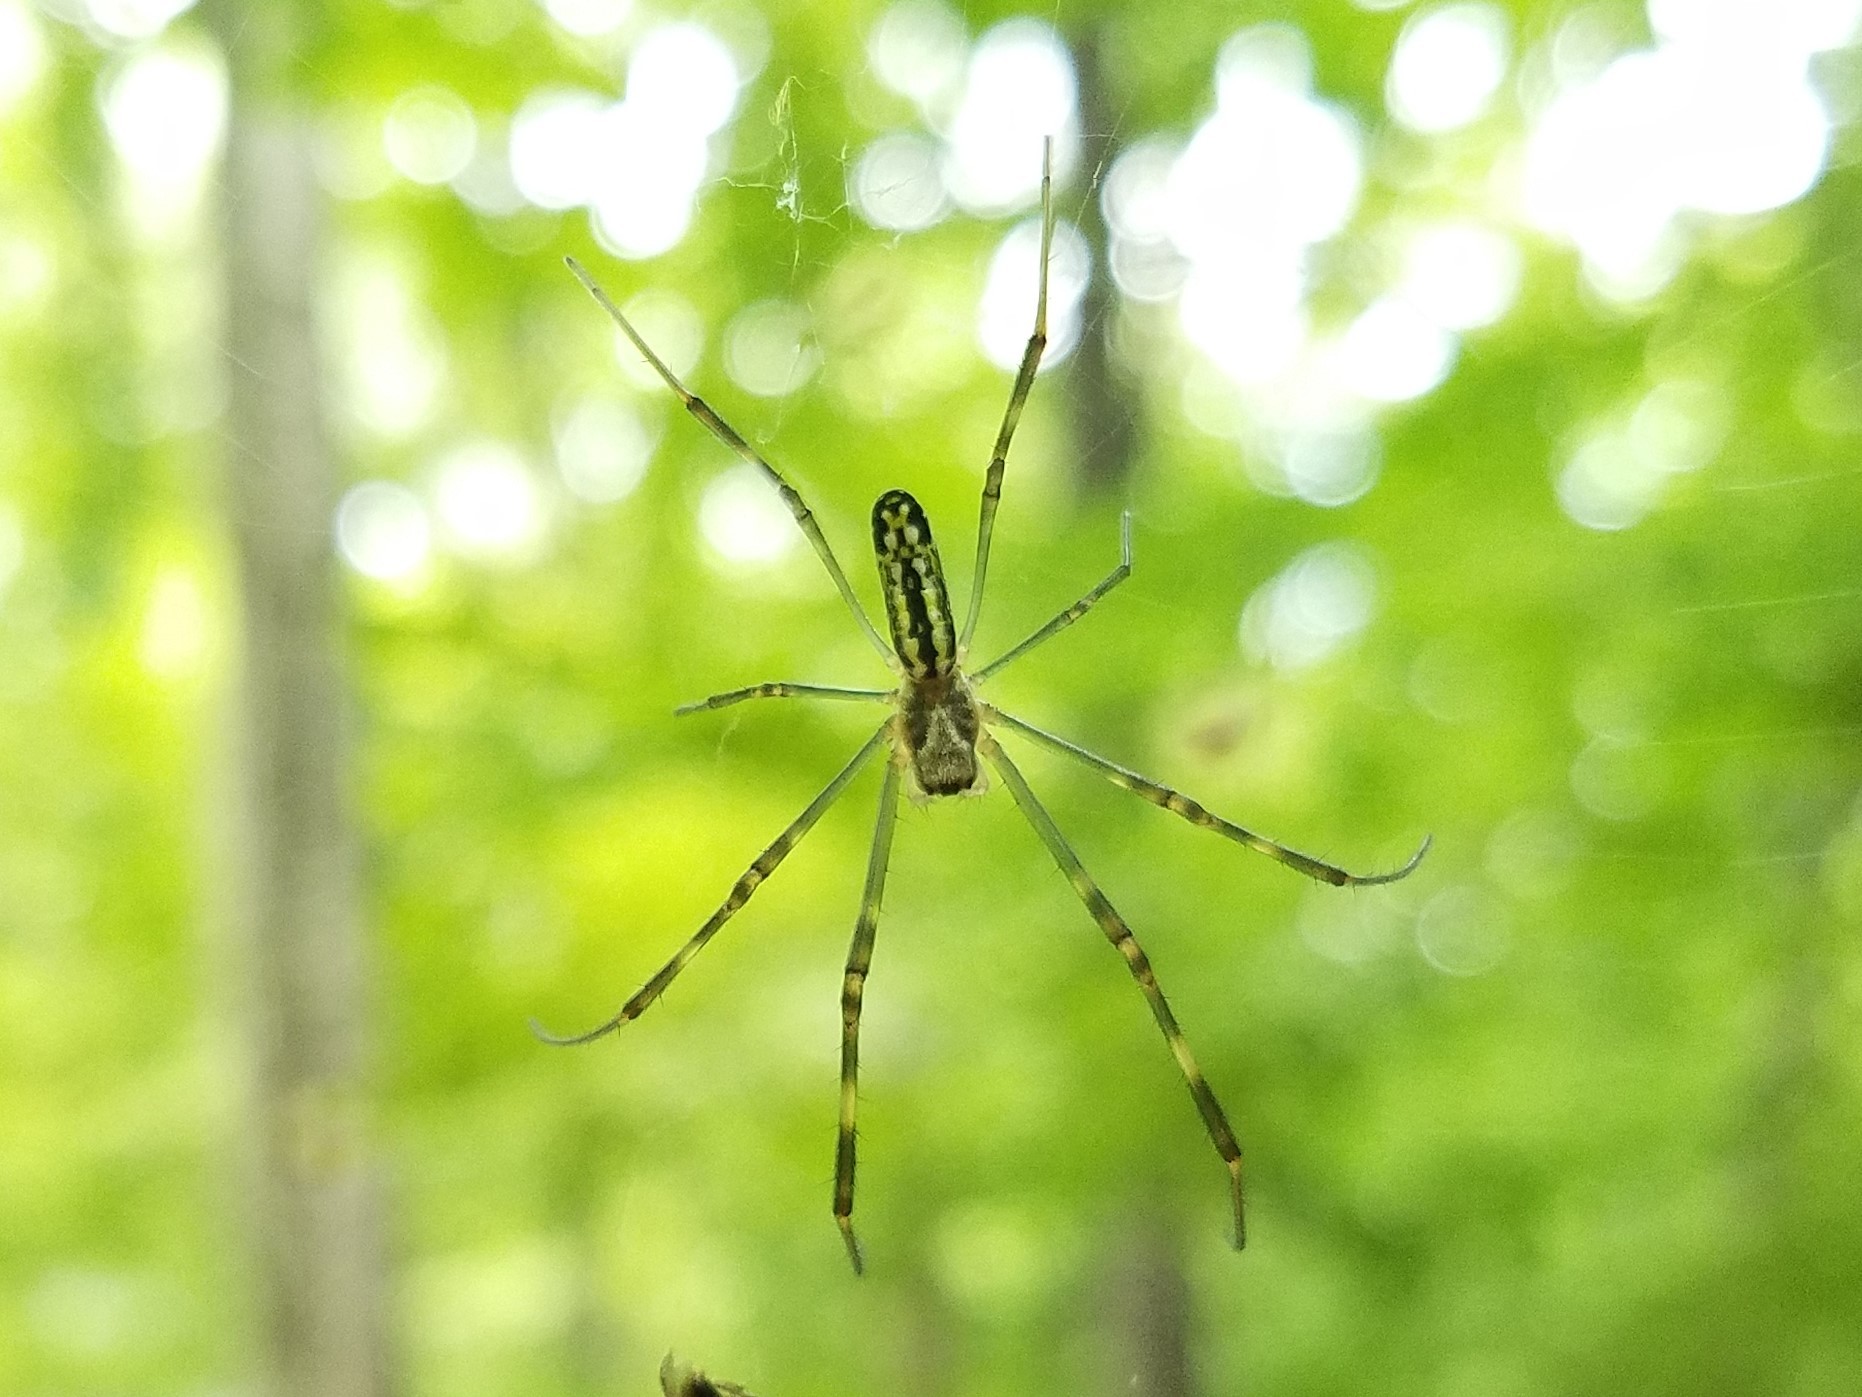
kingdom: Animalia
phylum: Arthropoda
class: Arachnida
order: Araneae
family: Araneidae
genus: Trichonephila
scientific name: Trichonephila clavata
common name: Jorō spider
